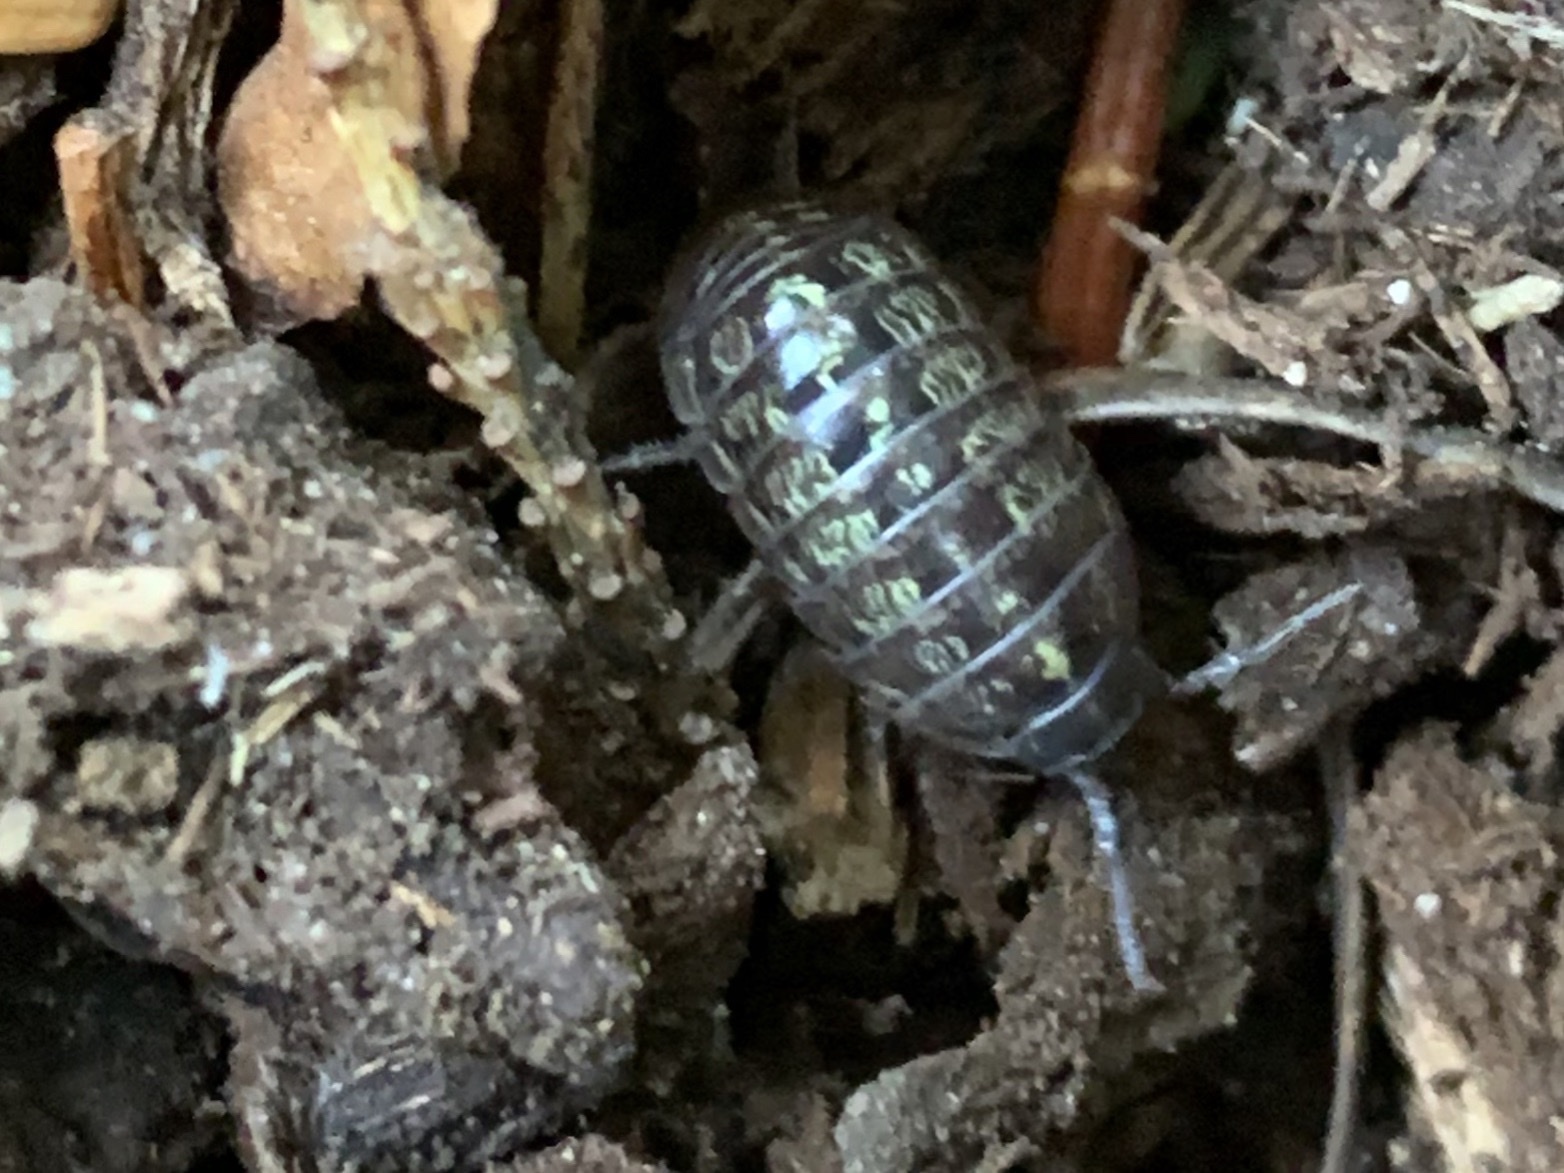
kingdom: Animalia
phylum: Arthropoda
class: Malacostraca
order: Isopoda
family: Armadillidiidae
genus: Armadillidium
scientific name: Armadillidium vulgare
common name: Common pill woodlouse
